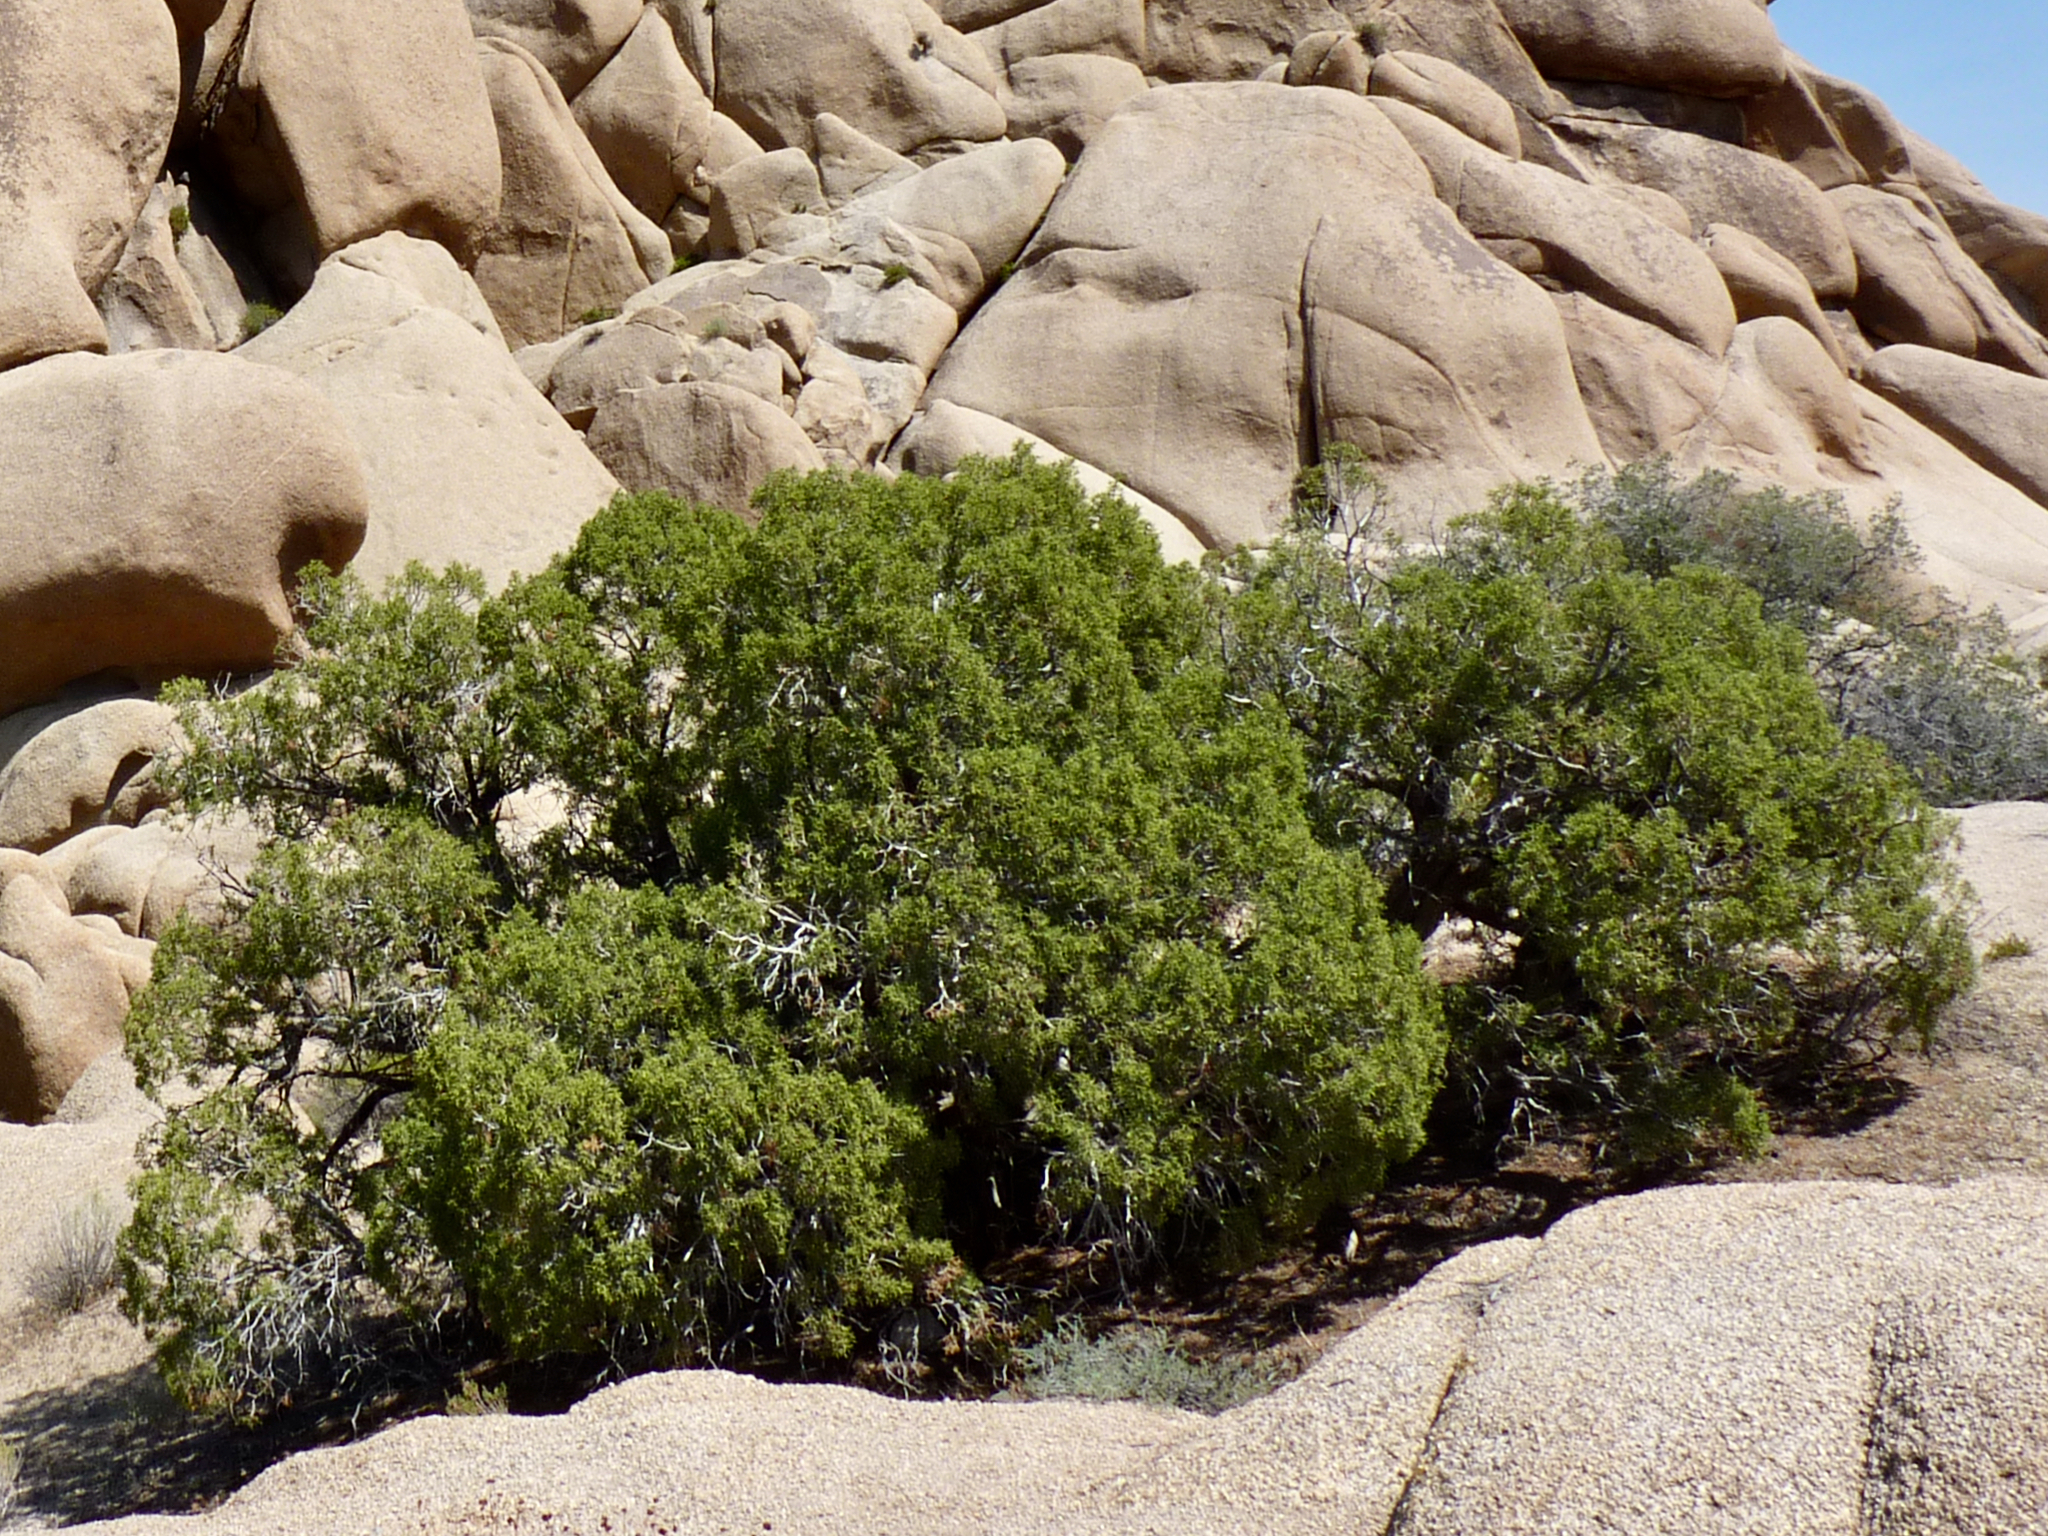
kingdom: Plantae
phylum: Tracheophyta
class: Pinopsida
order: Pinales
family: Cupressaceae
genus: Juniperus
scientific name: Juniperus californica
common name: California juniper
